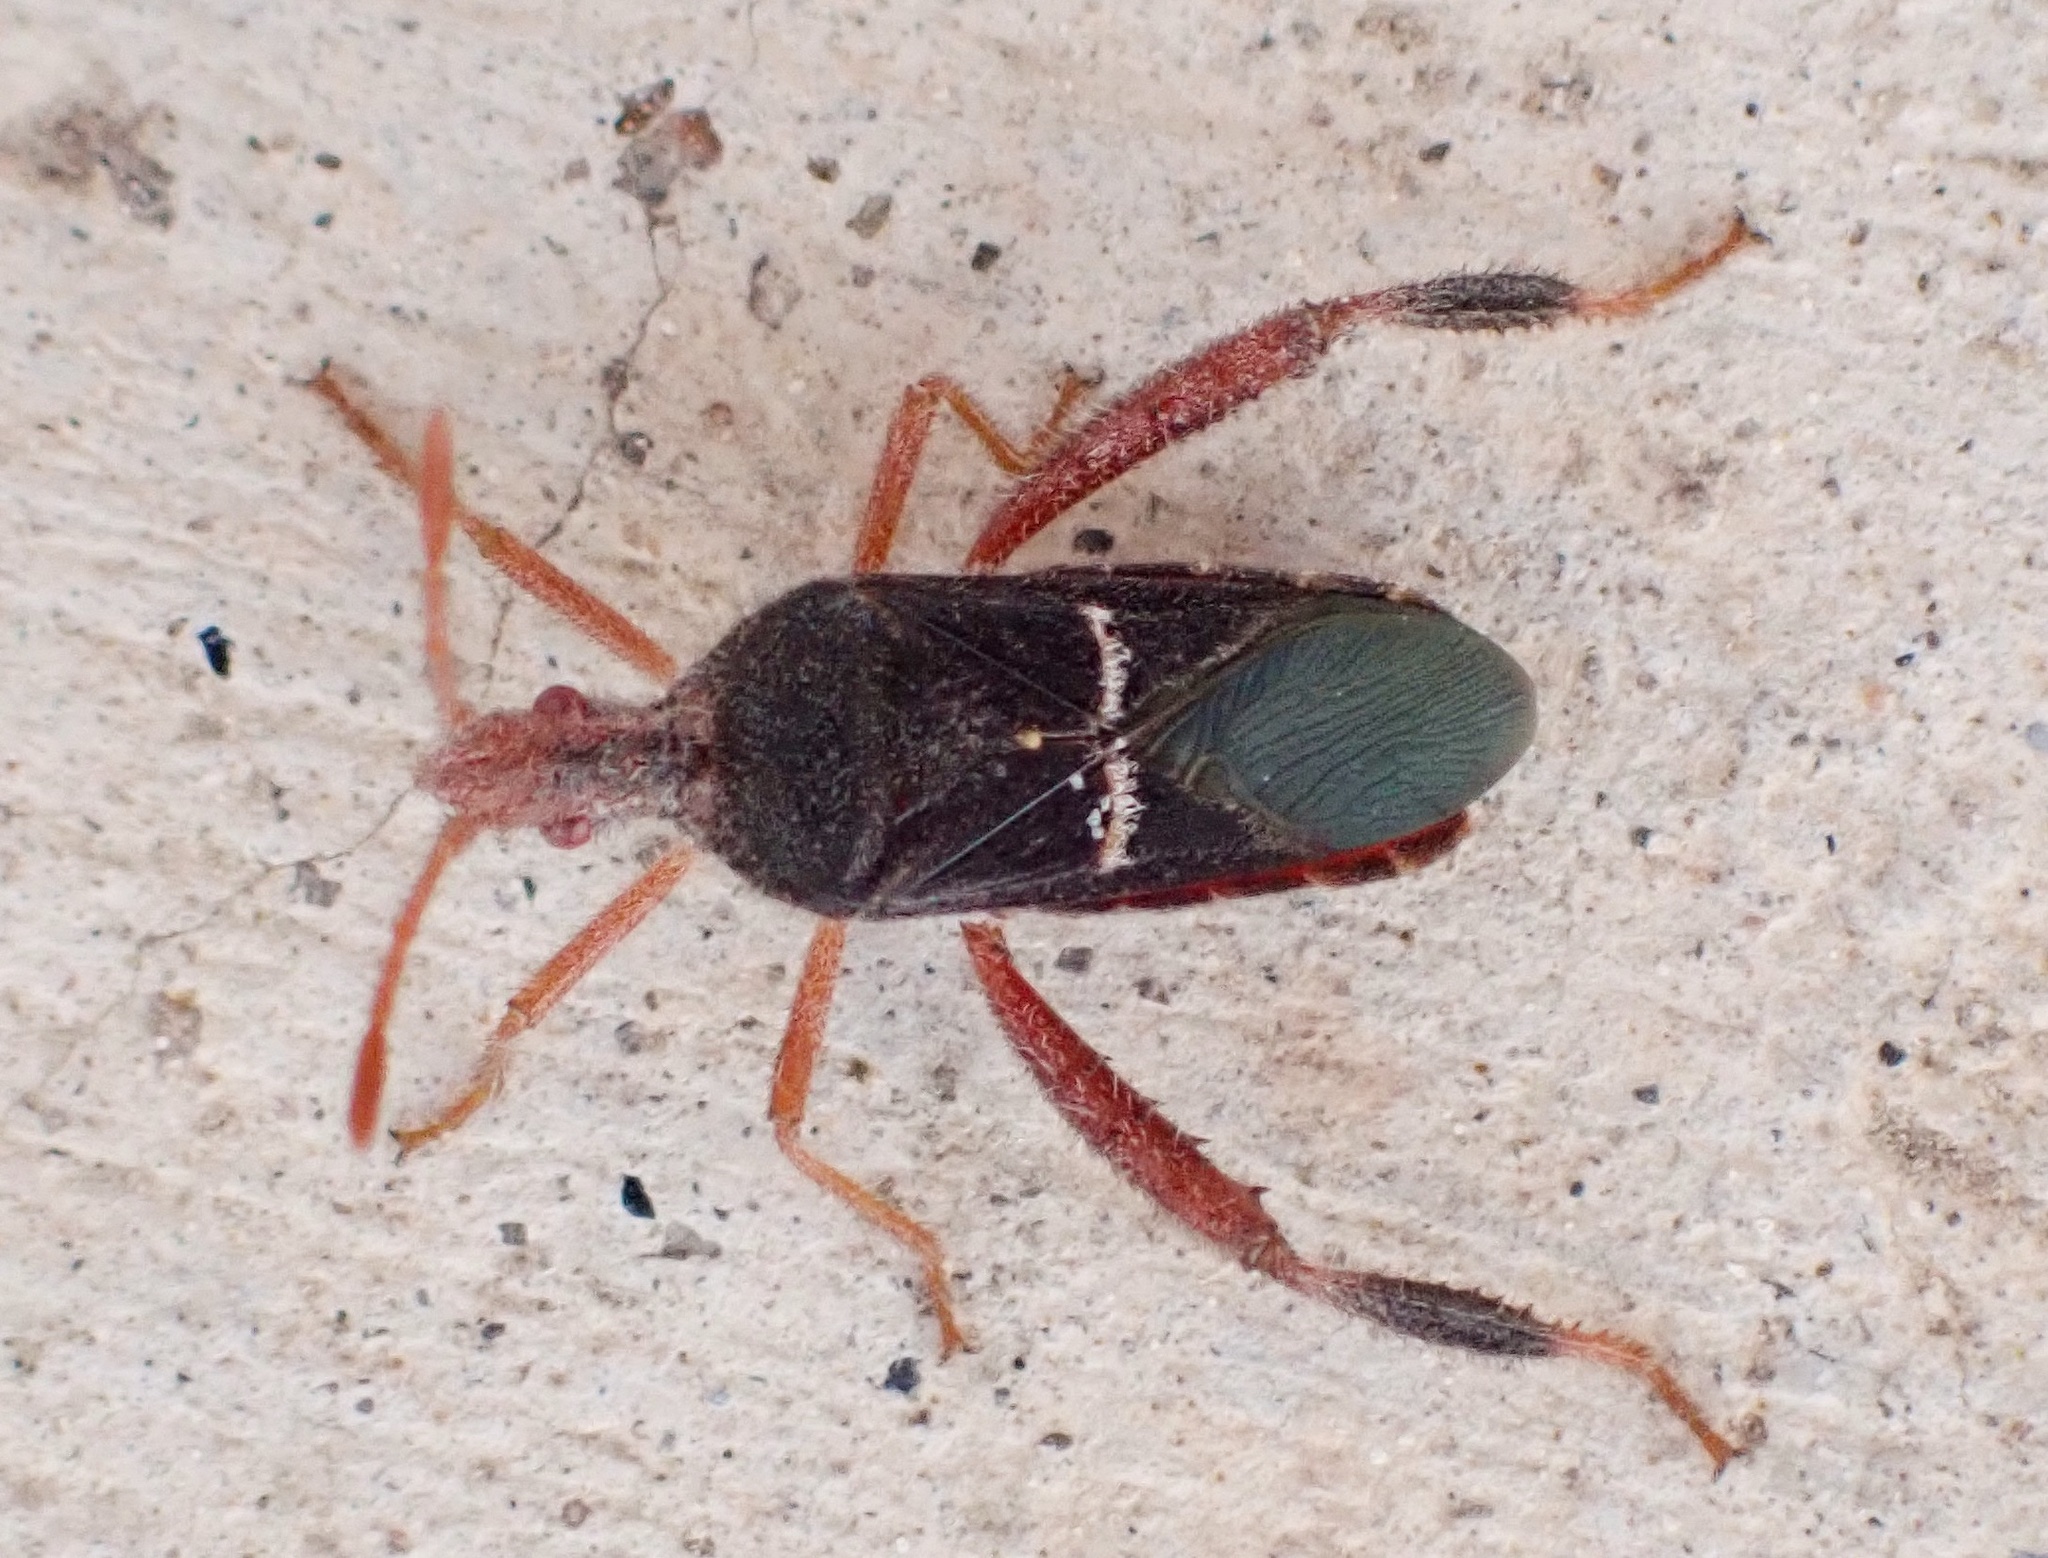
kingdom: Animalia
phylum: Arthropoda
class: Insecta
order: Hemiptera
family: Coreidae
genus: Narnia
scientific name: Narnia wilsoni
